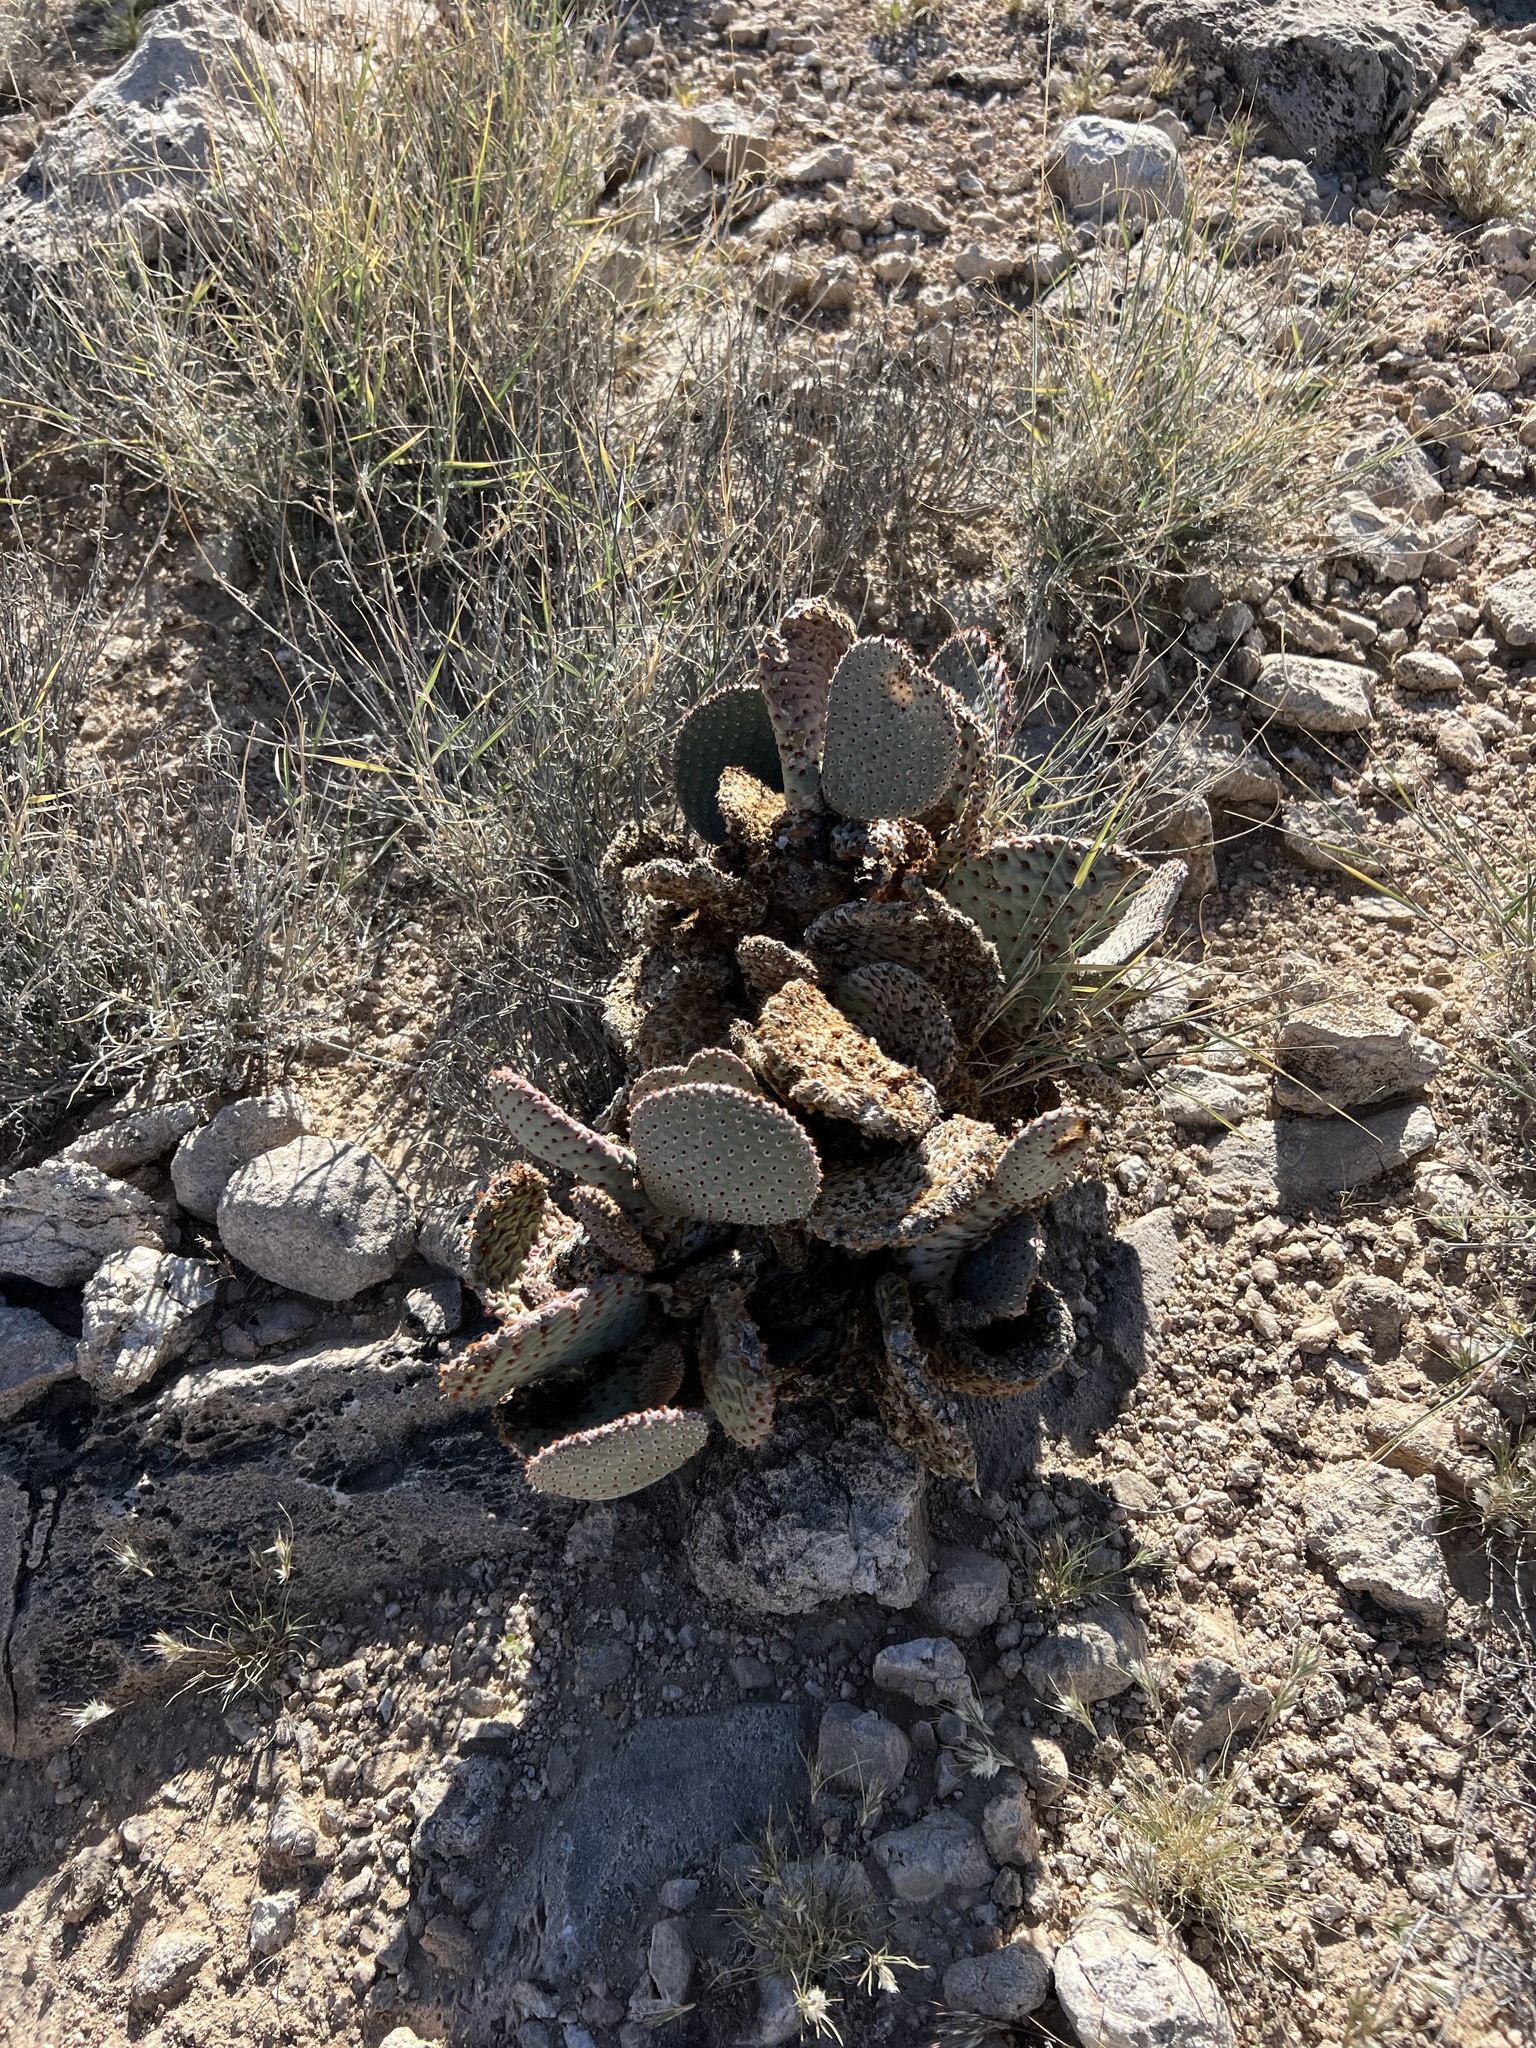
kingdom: Plantae
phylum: Tracheophyta
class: Magnoliopsida
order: Caryophyllales
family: Cactaceae
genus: Opuntia
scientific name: Opuntia basilaris
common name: Beavertail prickly-pear
